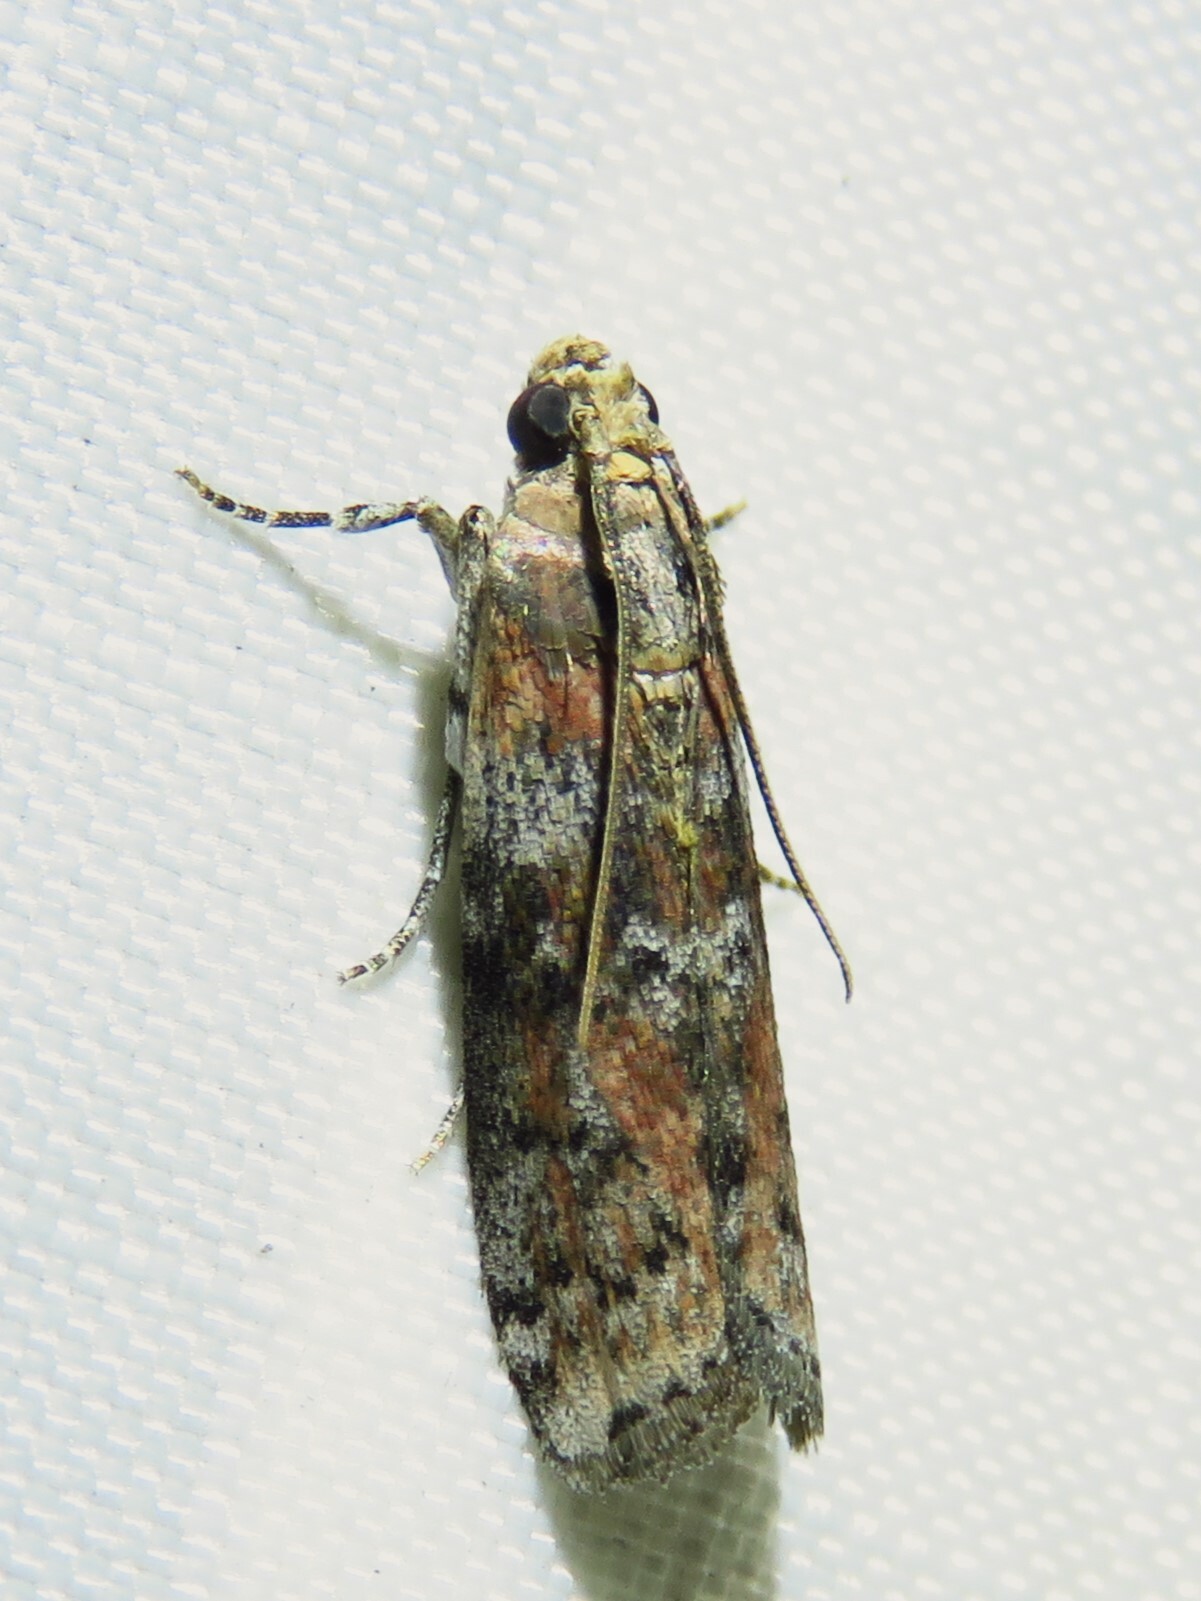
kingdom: Animalia
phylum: Arthropoda
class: Insecta
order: Lepidoptera
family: Pyralidae
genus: Sciota
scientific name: Sciota celtidella
